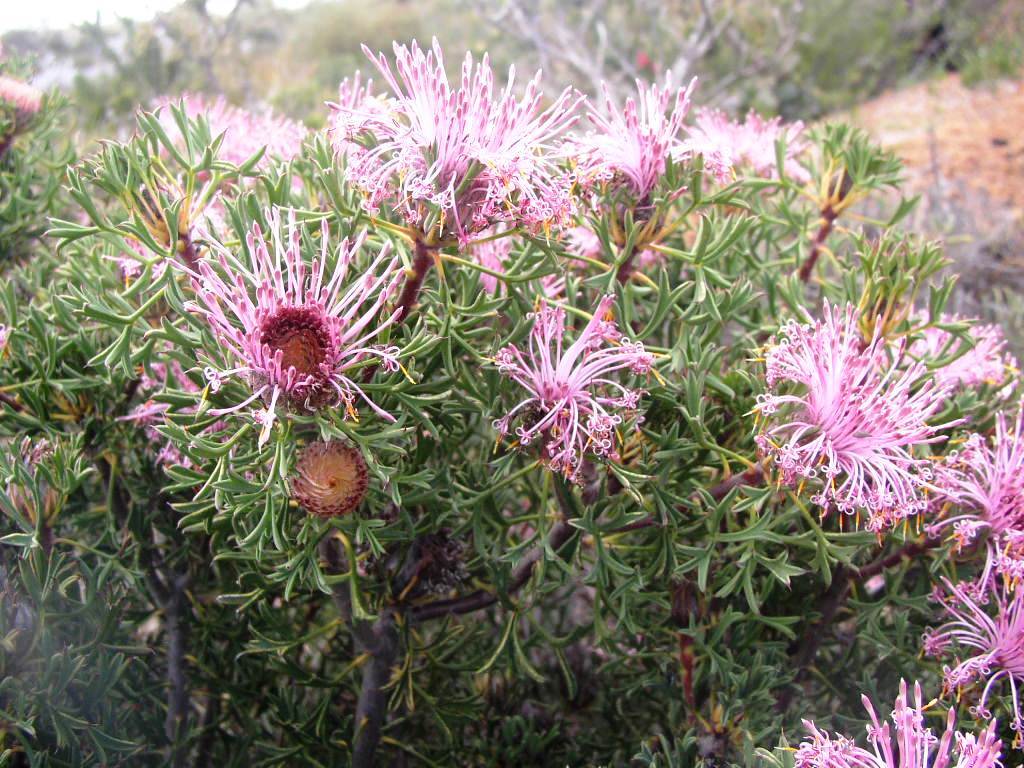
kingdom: Plantae
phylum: Tracheophyta
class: Magnoliopsida
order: Proteales
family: Proteaceae
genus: Isopogon
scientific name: Isopogon dubius
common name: Pincushion-coneflower
